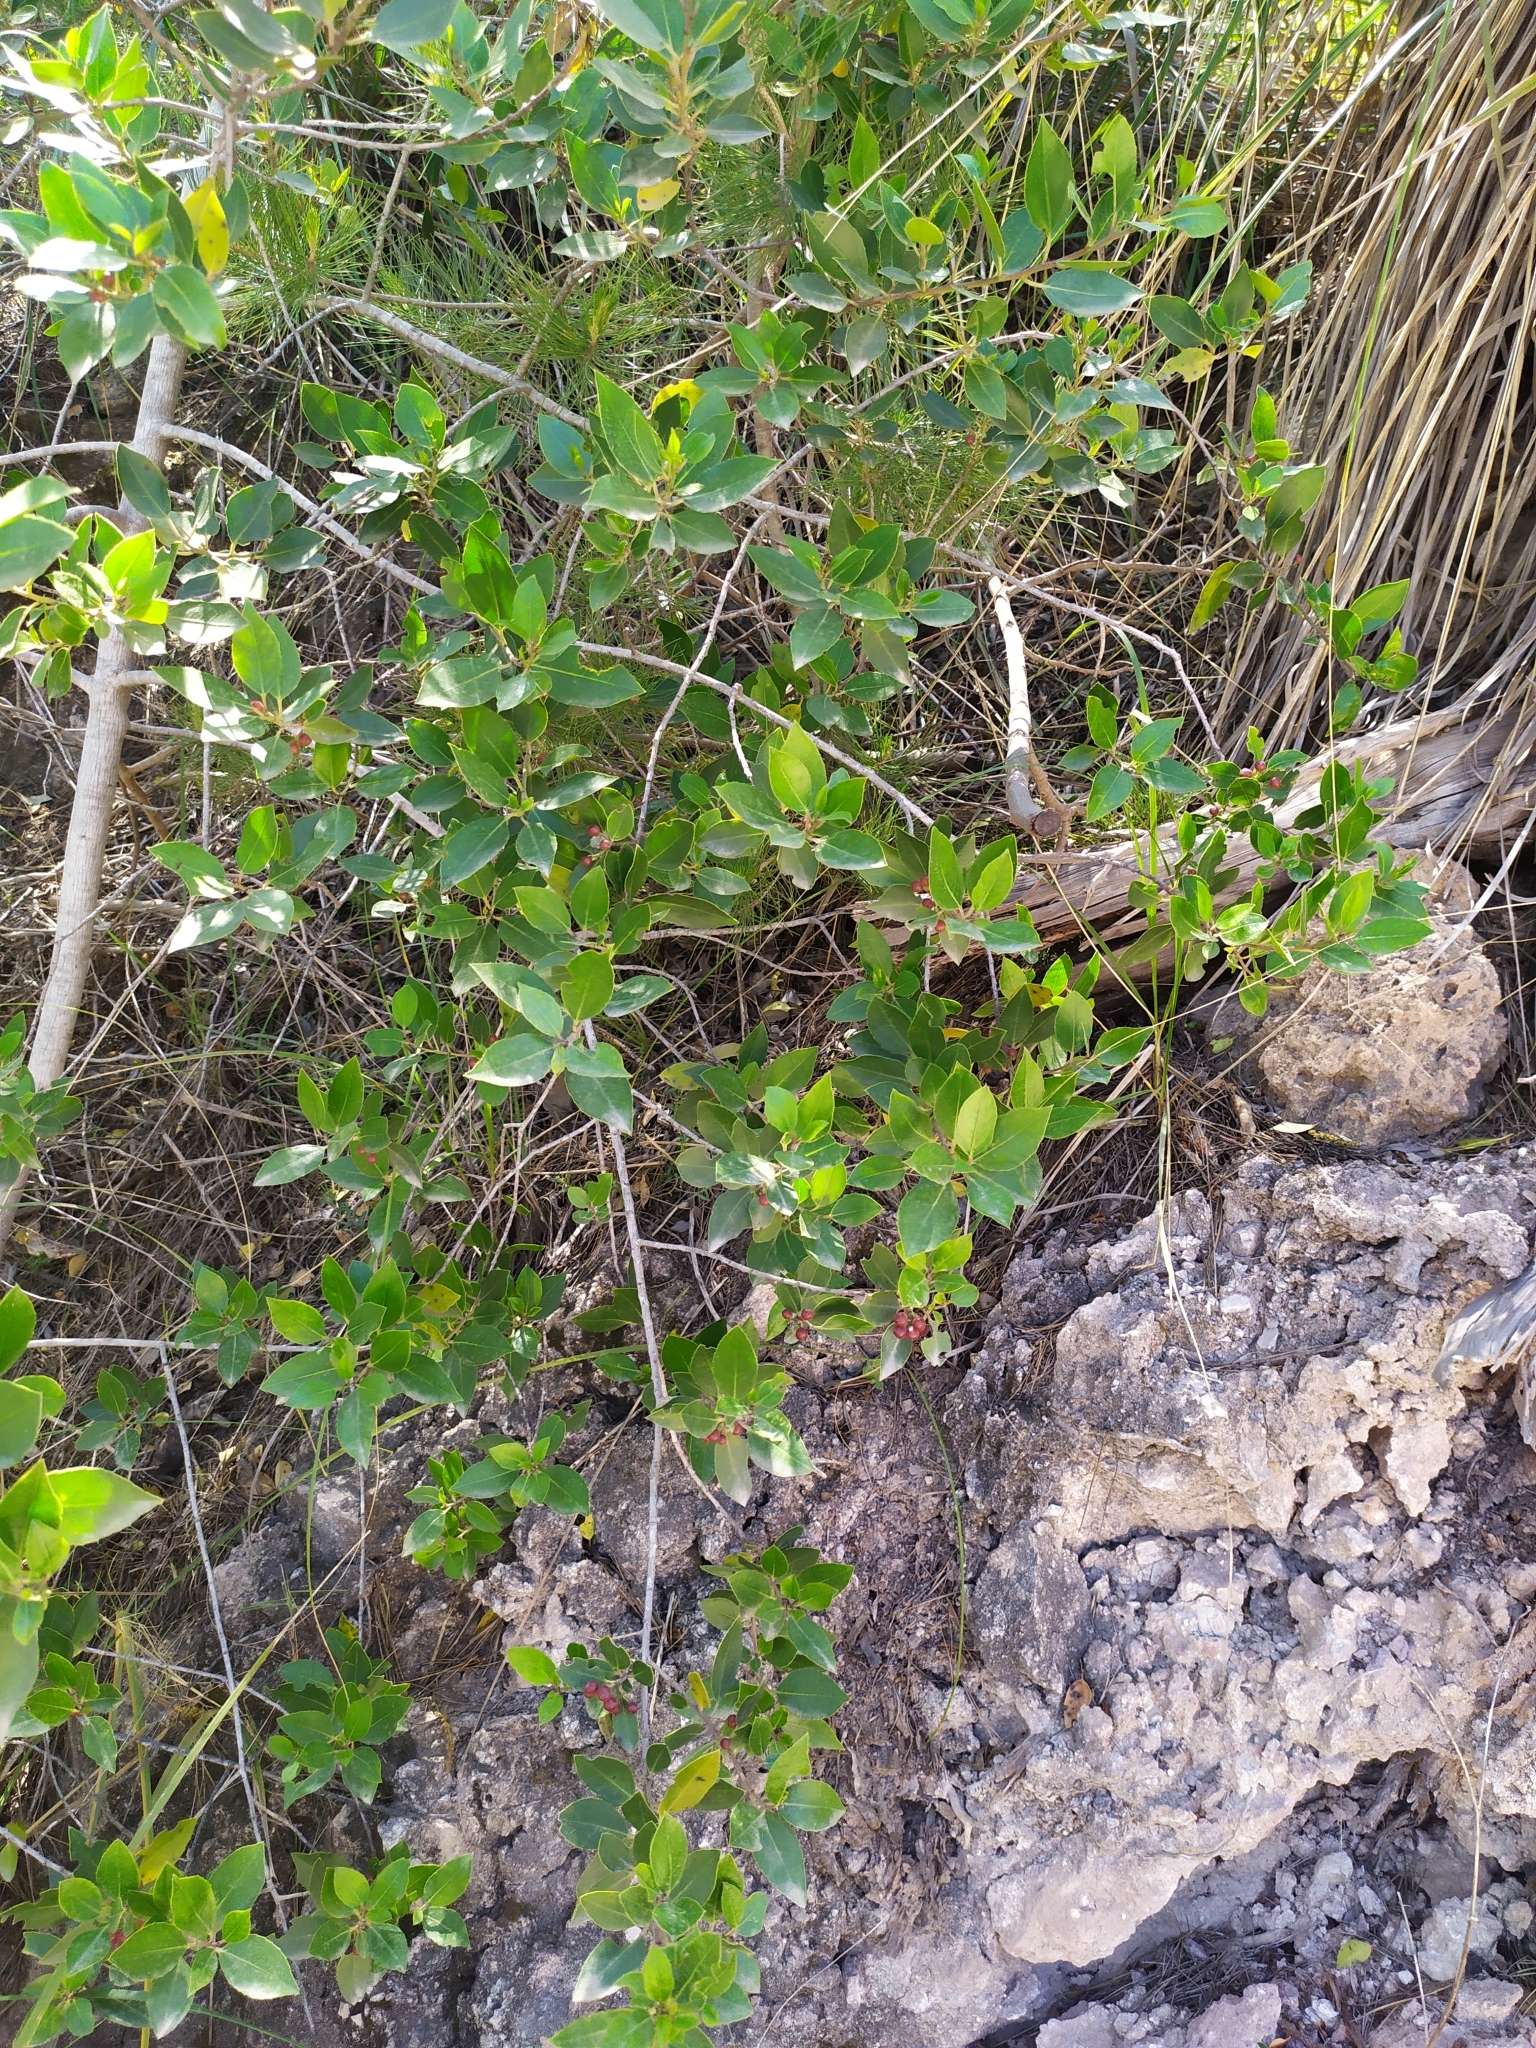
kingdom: Plantae
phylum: Tracheophyta
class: Magnoliopsida
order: Rosales
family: Rhamnaceae
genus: Rhamnus
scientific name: Rhamnus alaternus
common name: Mediterranean buckthorn
